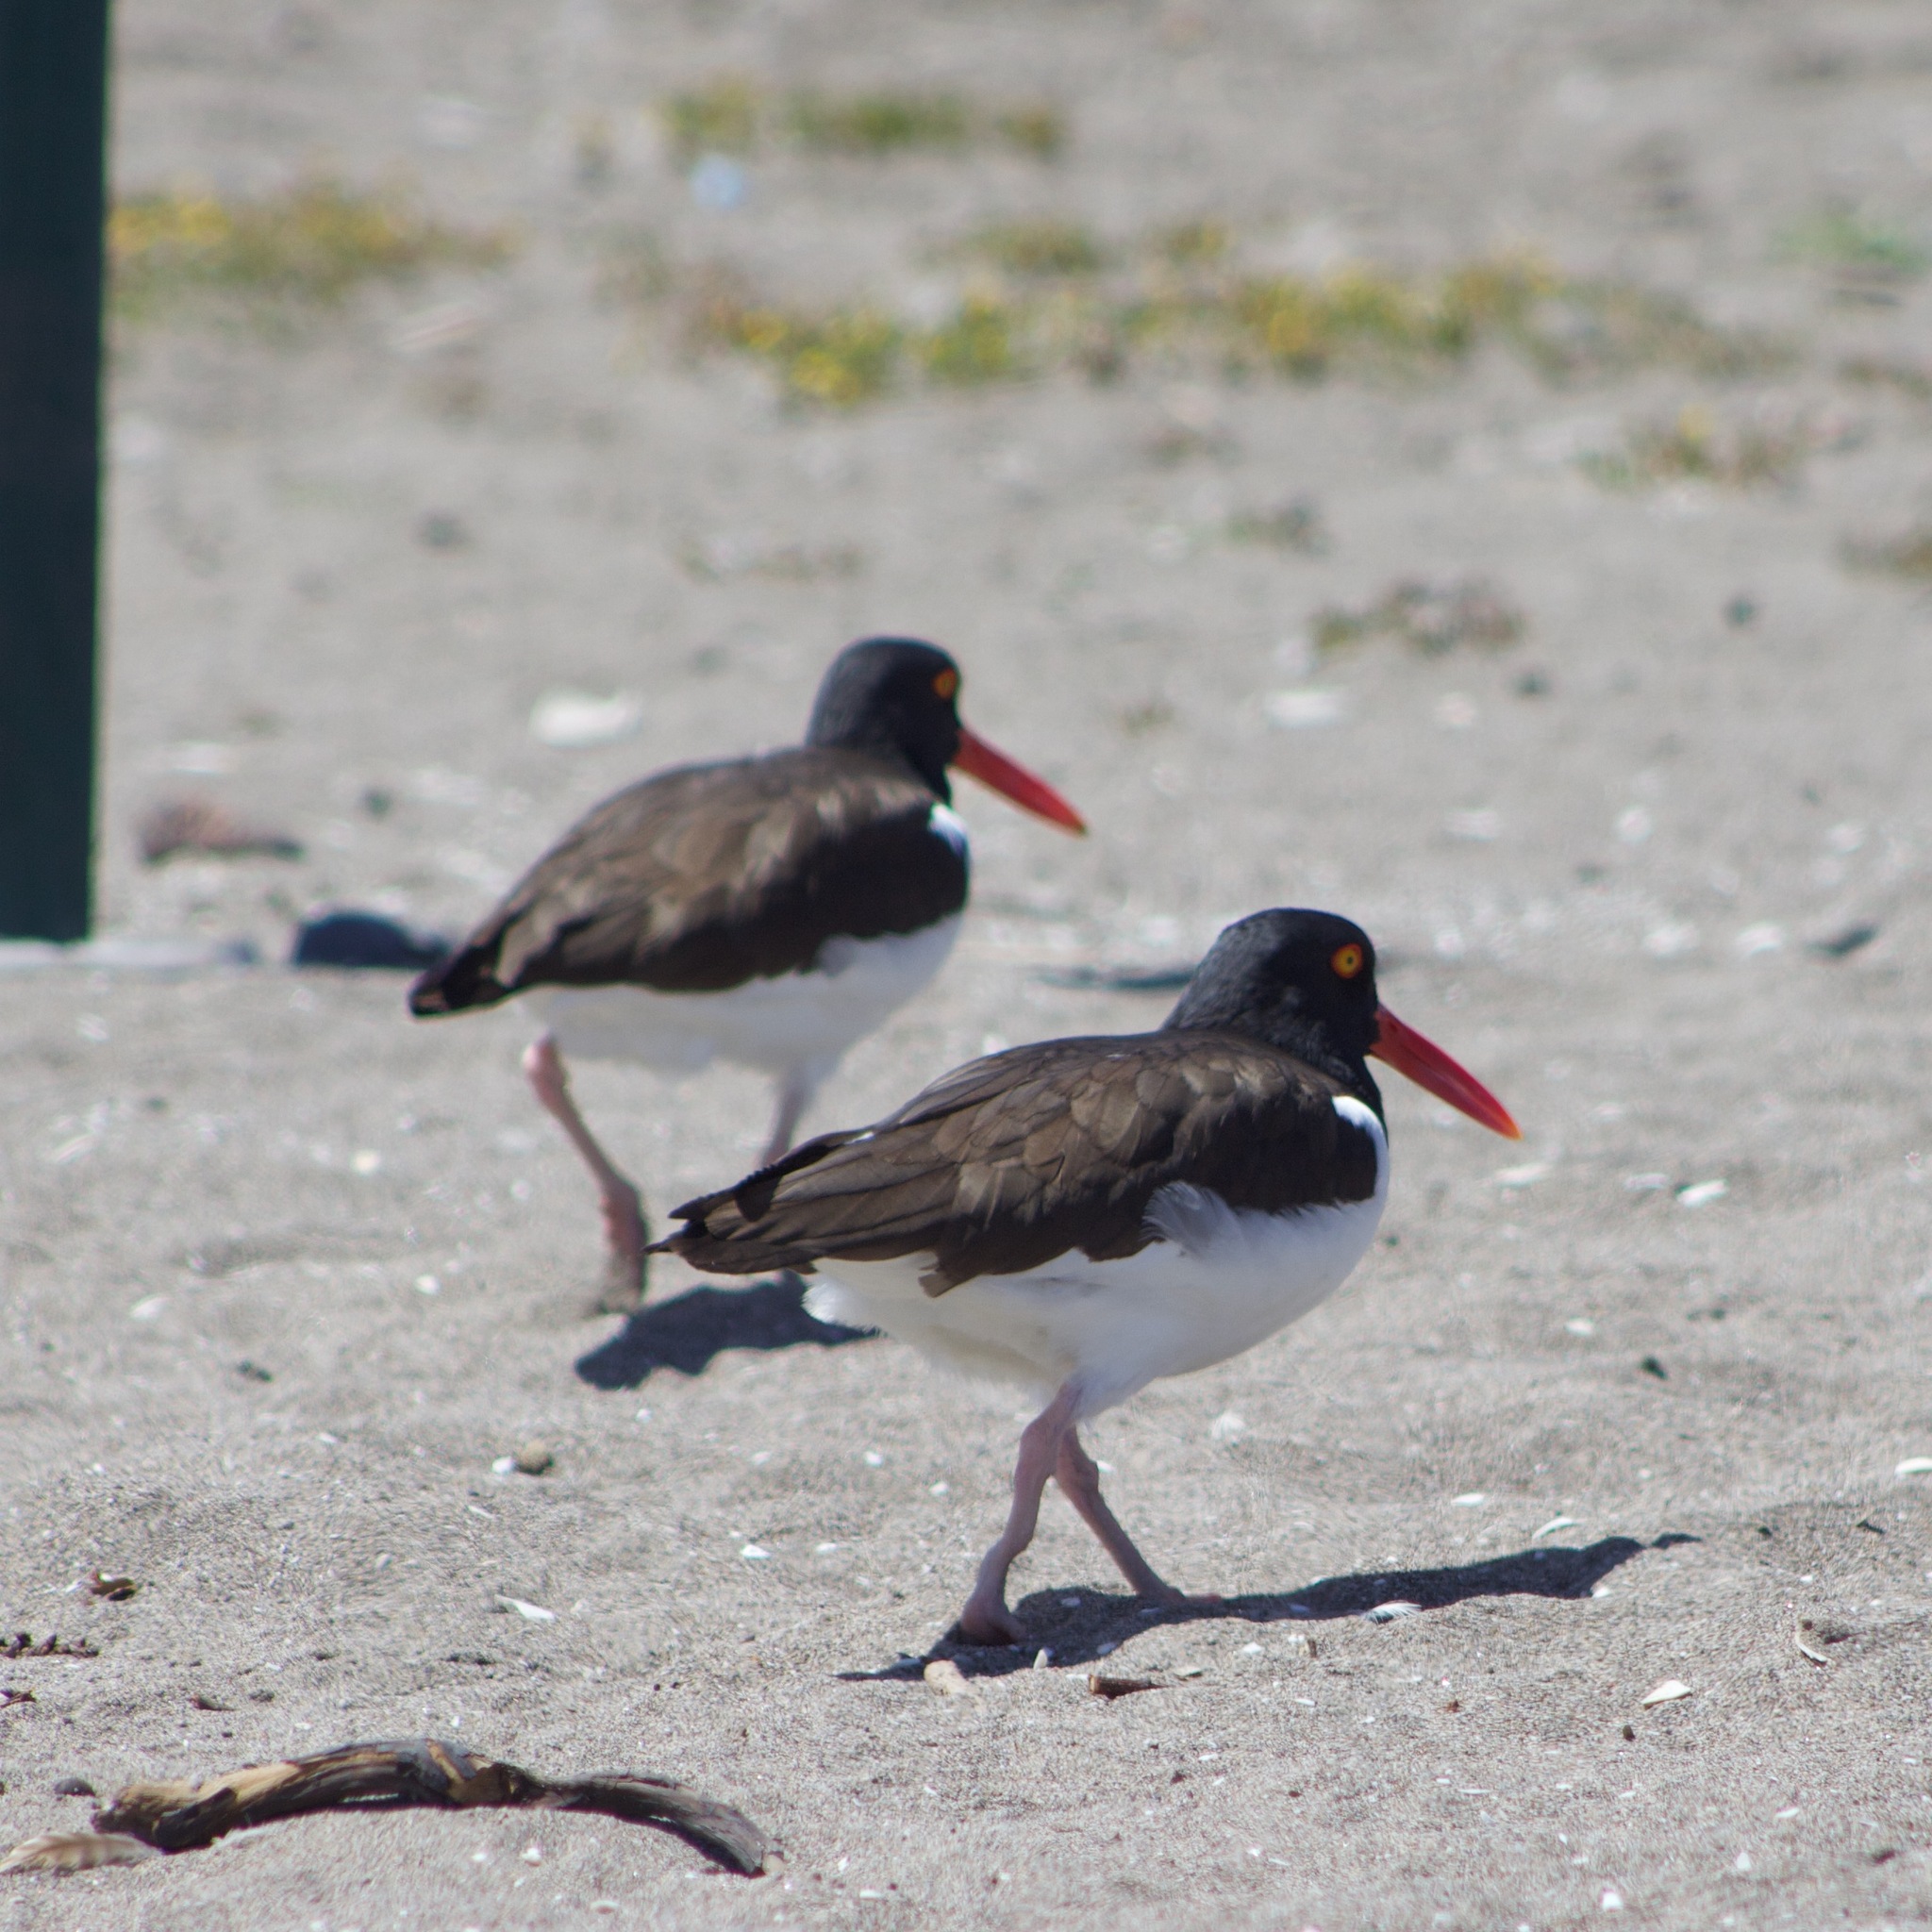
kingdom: Animalia
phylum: Chordata
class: Aves
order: Charadriiformes
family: Haematopodidae
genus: Haematopus
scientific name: Haematopus palliatus
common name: American oystercatcher
